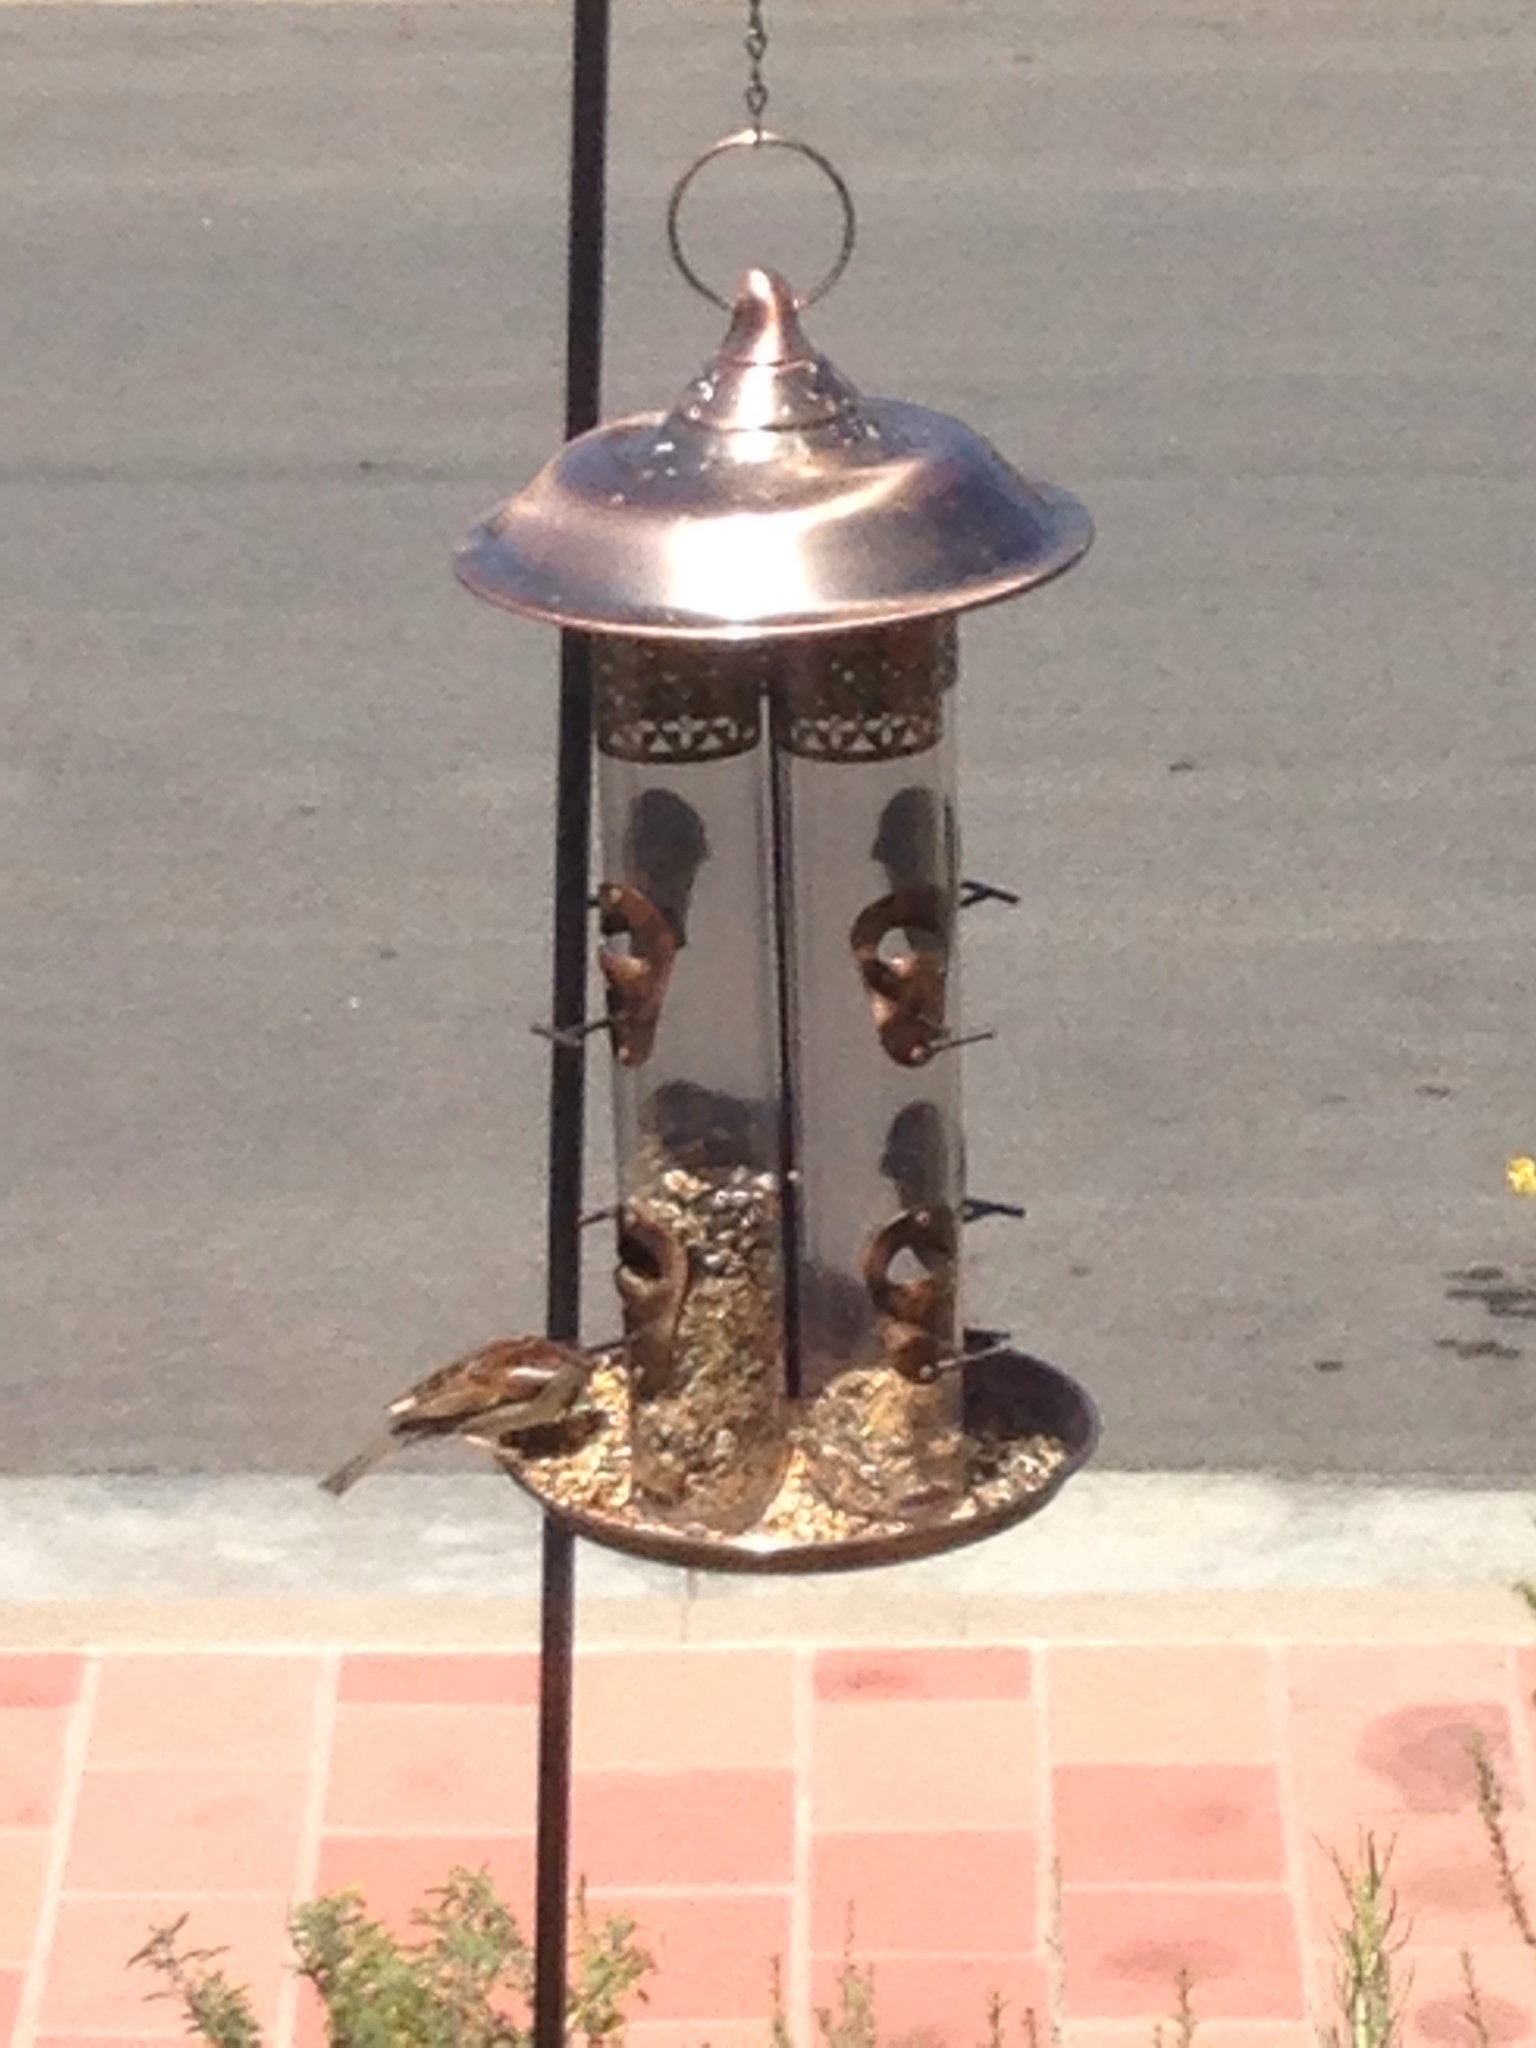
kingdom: Animalia
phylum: Chordata
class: Aves
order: Passeriformes
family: Passeridae
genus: Passer
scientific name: Passer domesticus
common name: House sparrow
